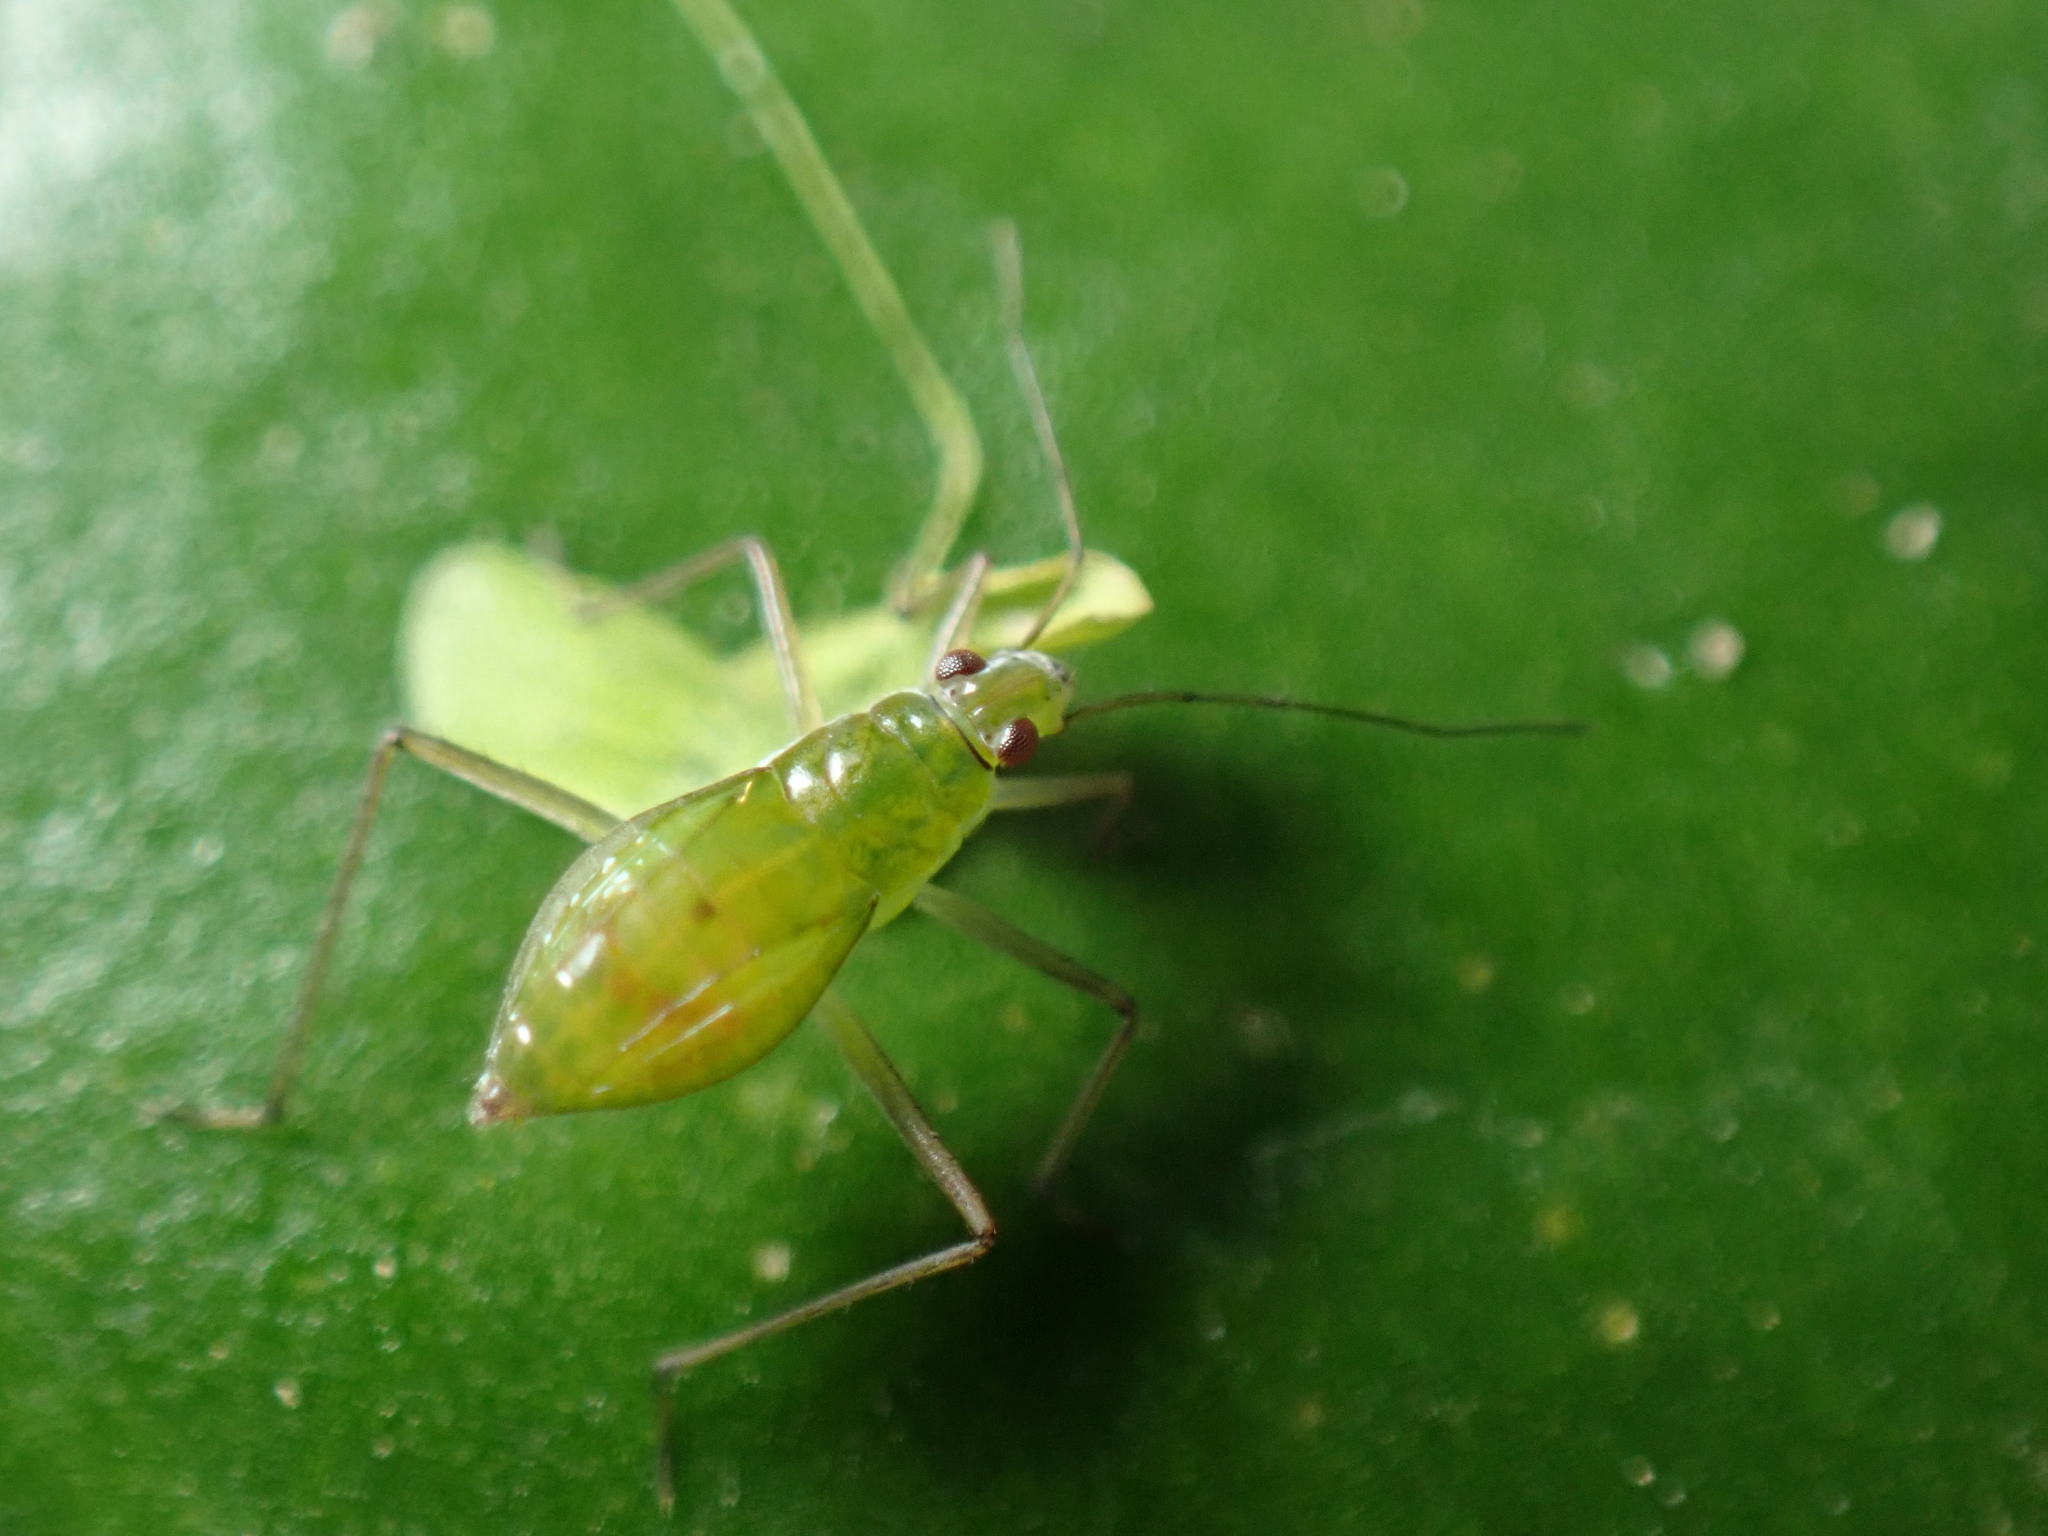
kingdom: Animalia
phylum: Arthropoda
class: Insecta
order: Hemiptera
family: Mesoveliidae
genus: Mesovelia
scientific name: Mesovelia mulsanti
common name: Water treaders
